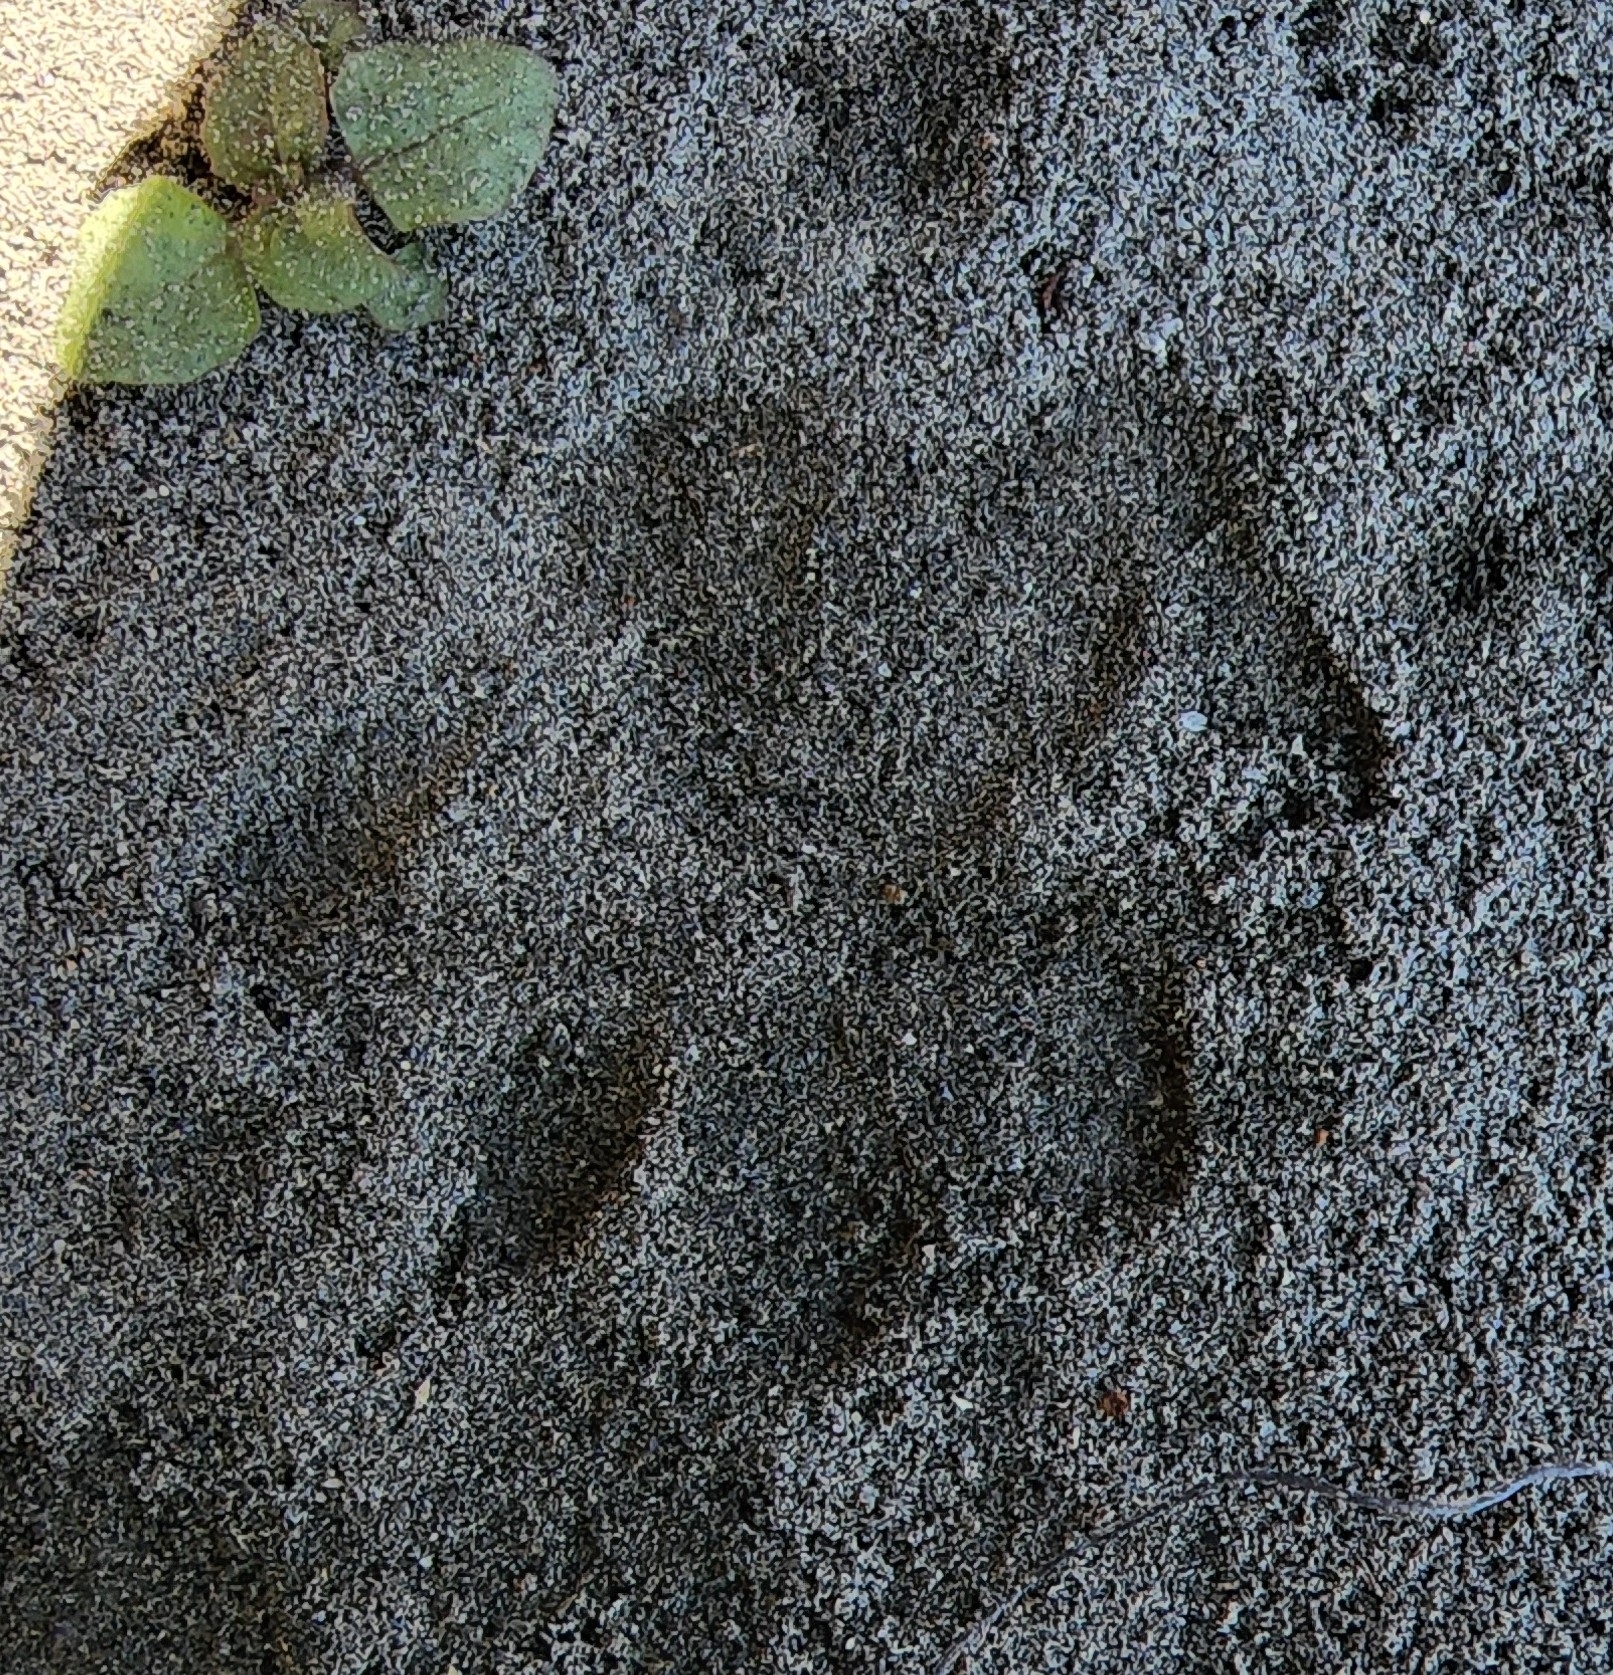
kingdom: Animalia
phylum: Chordata
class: Mammalia
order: Carnivora
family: Procyonidae
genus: Procyon
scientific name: Procyon lotor
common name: Raccoon
